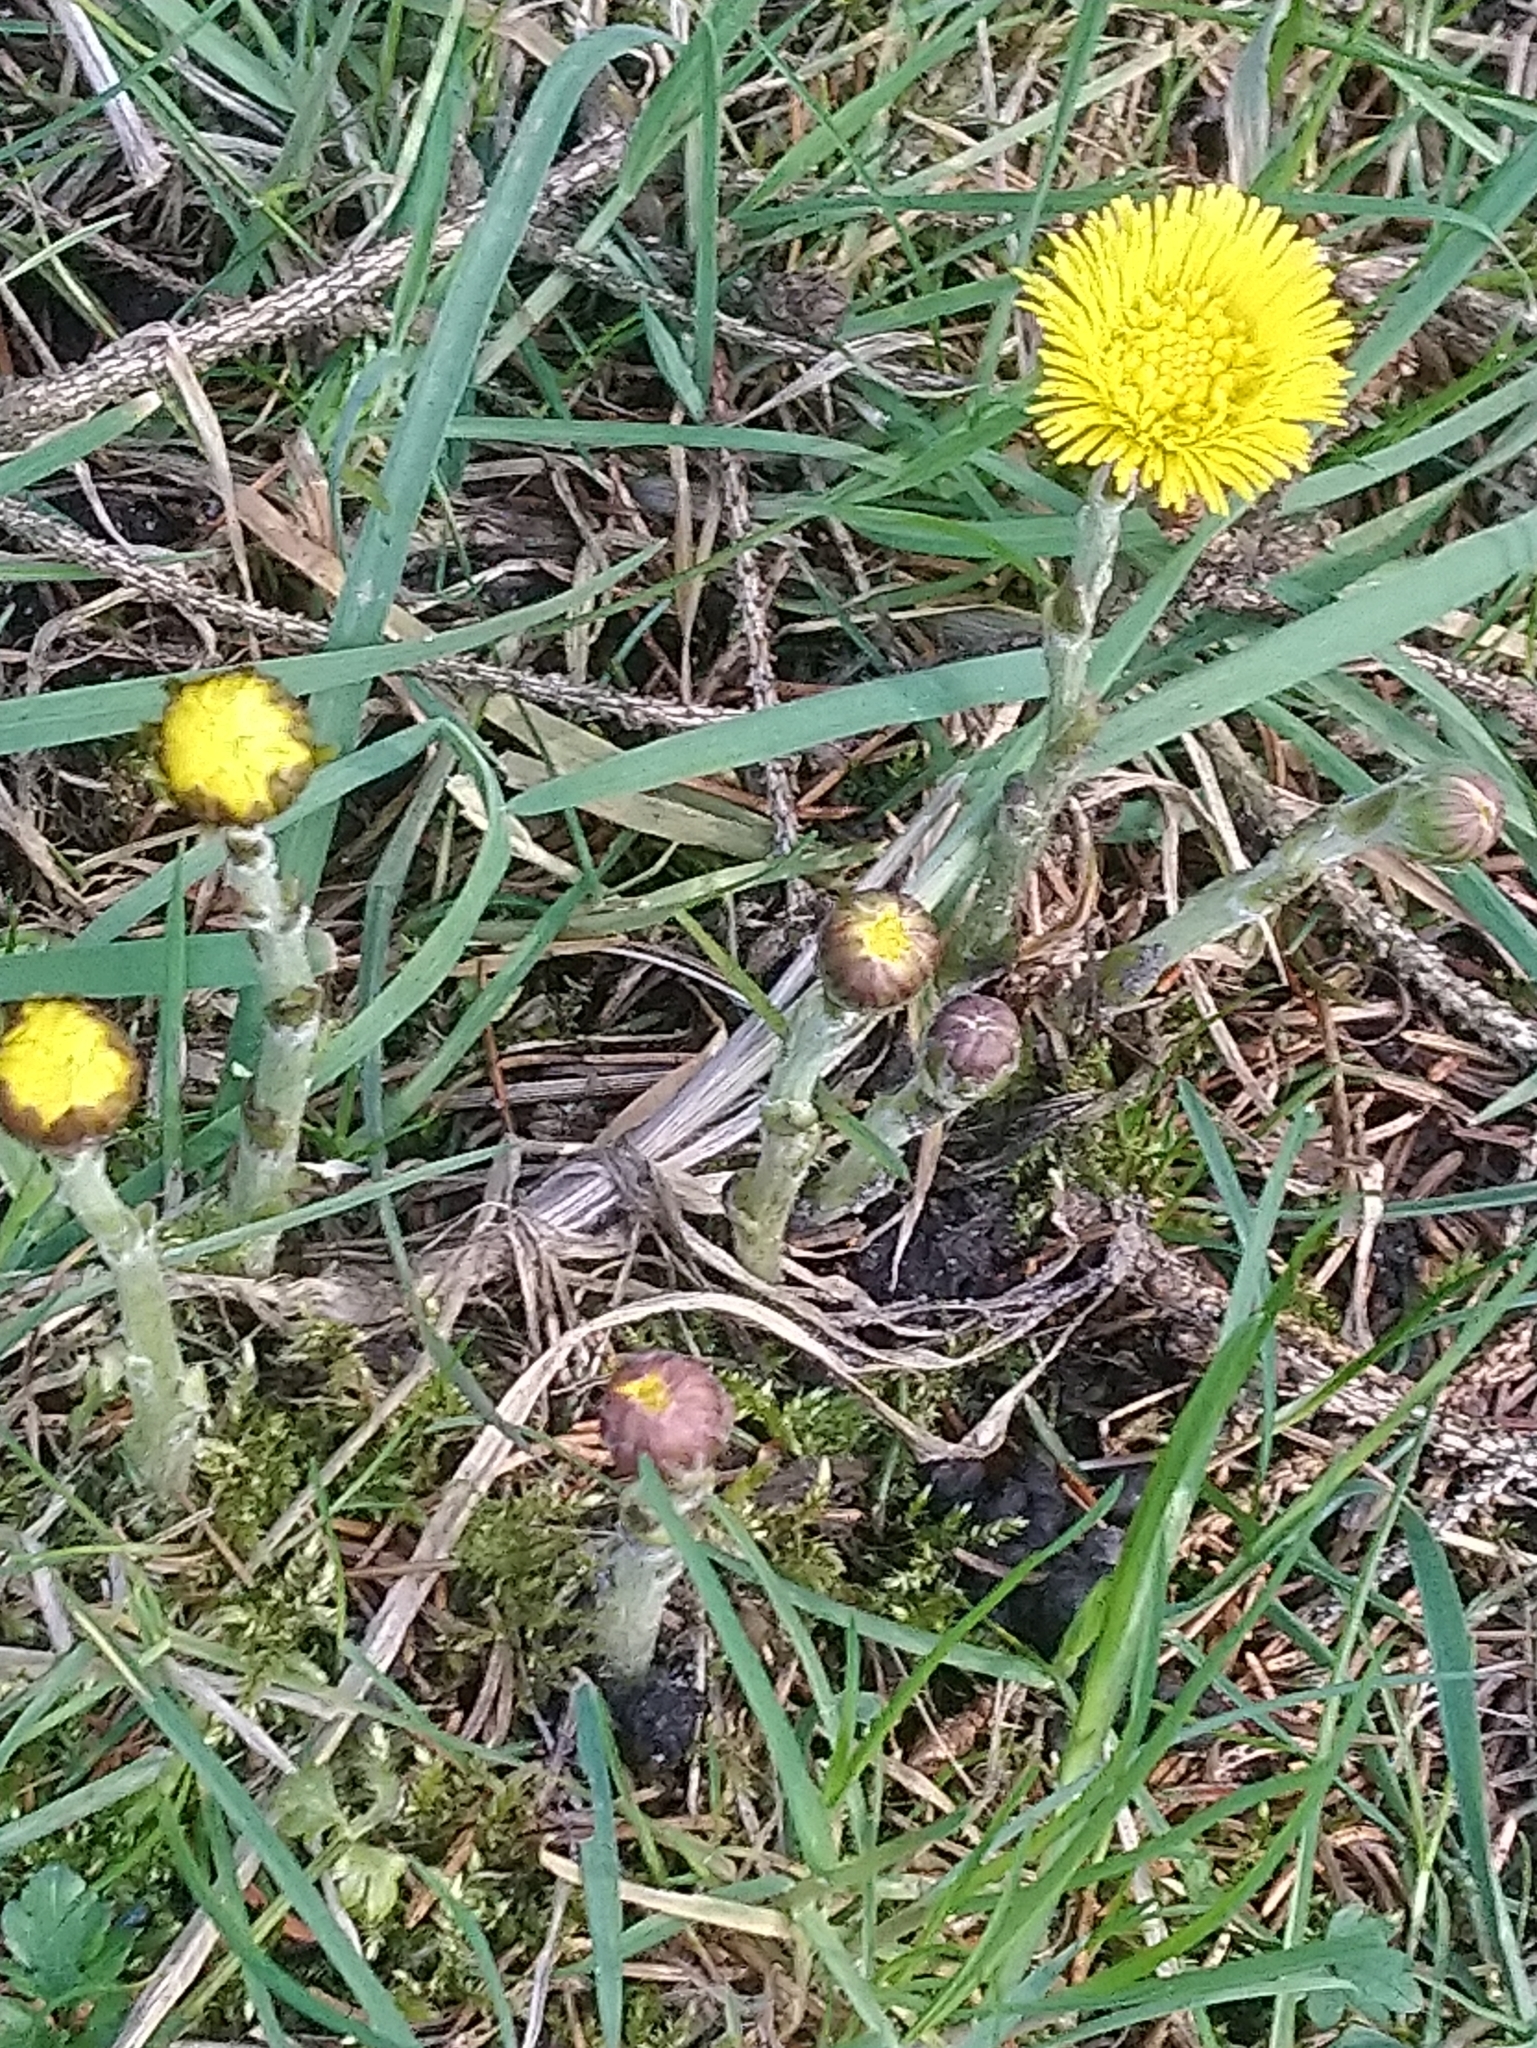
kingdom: Plantae
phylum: Tracheophyta
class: Magnoliopsida
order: Asterales
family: Asteraceae
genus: Tussilago
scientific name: Tussilago farfara
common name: Coltsfoot
